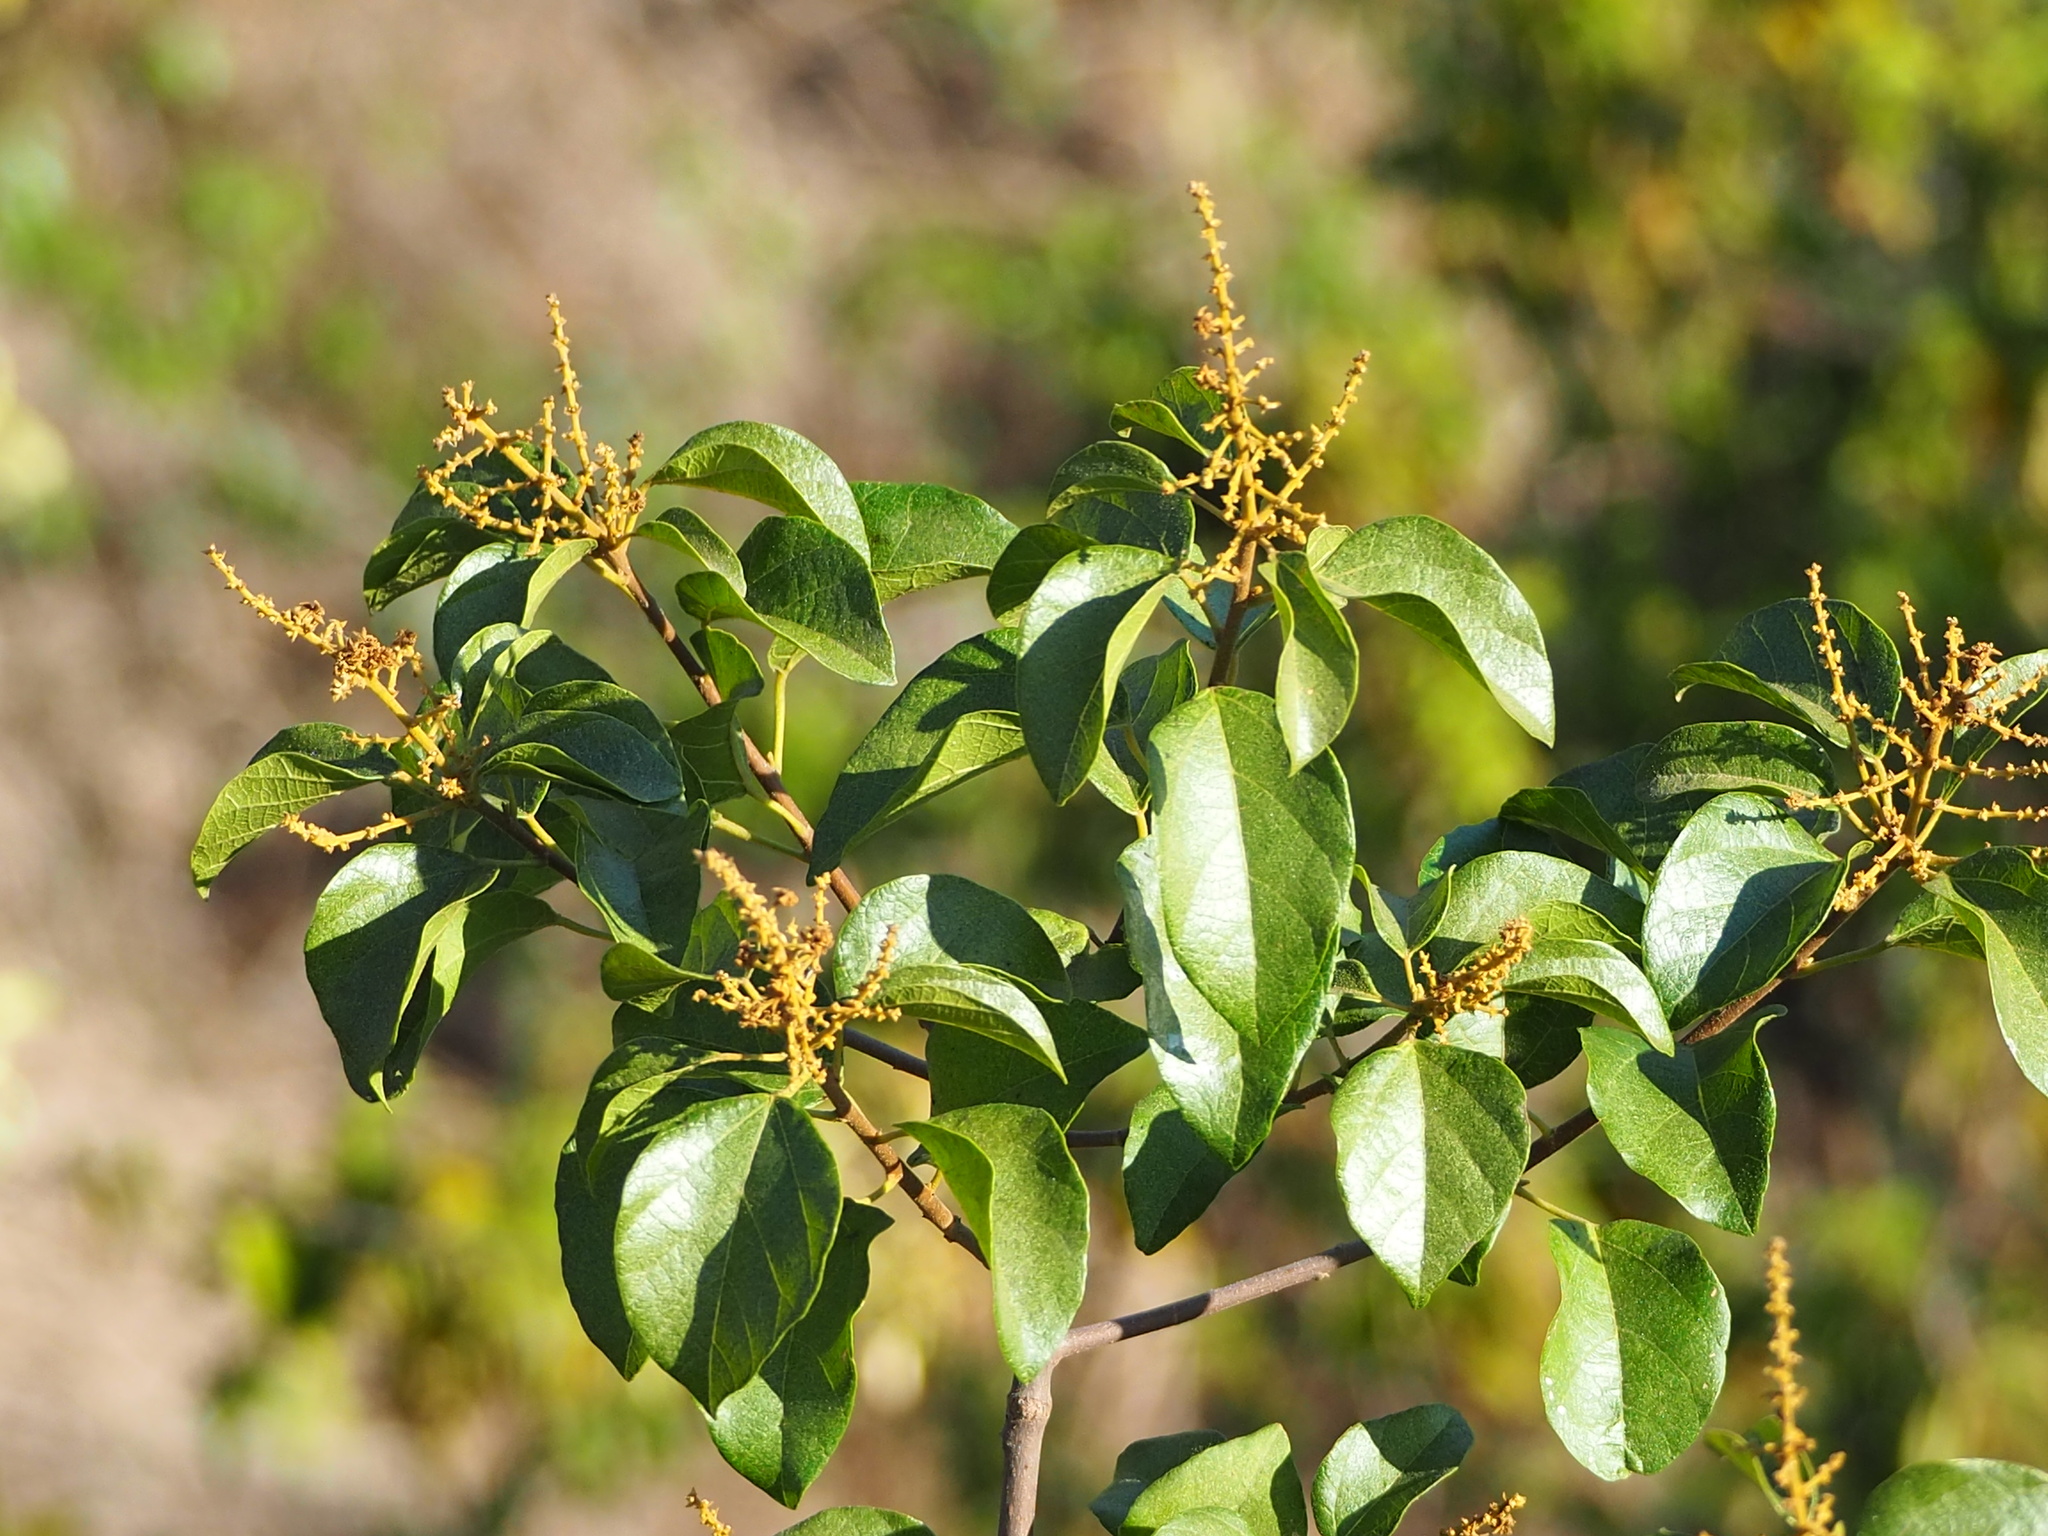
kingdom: Plantae
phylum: Tracheophyta
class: Magnoliopsida
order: Malpighiales
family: Euphorbiaceae
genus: Mallotus
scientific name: Mallotus repandus
